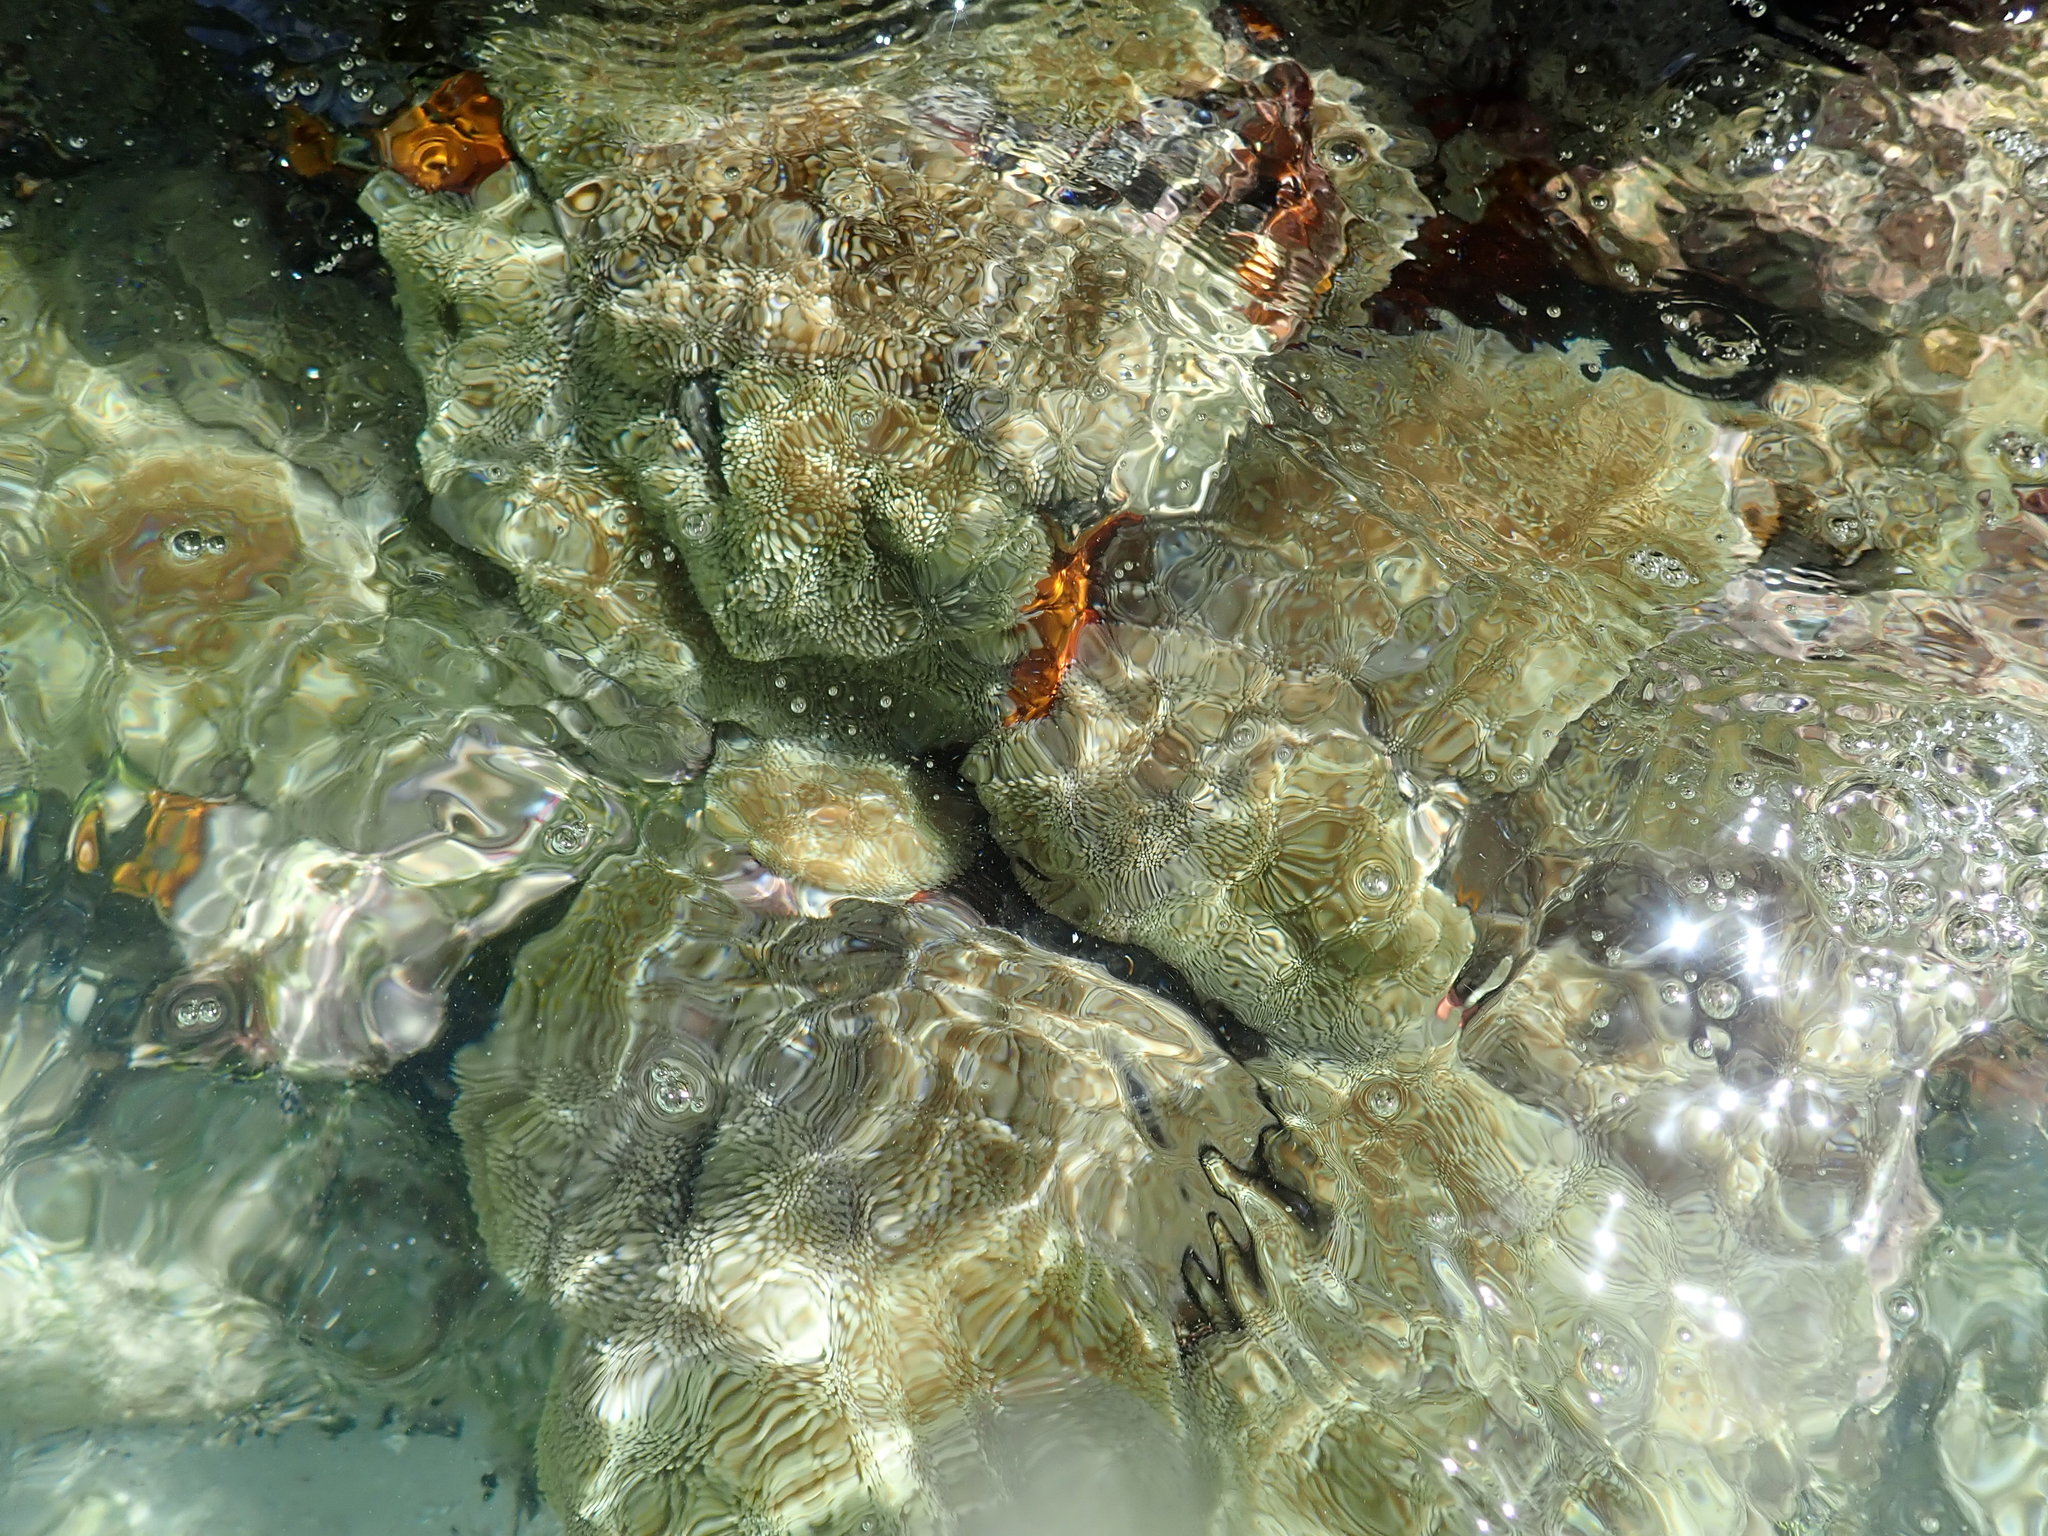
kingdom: Animalia
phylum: Cnidaria
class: Anthozoa
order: Actiniaria
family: Stichodactylidae
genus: Stichodactyla
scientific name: Stichodactyla helianthus
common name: Sun anemone
